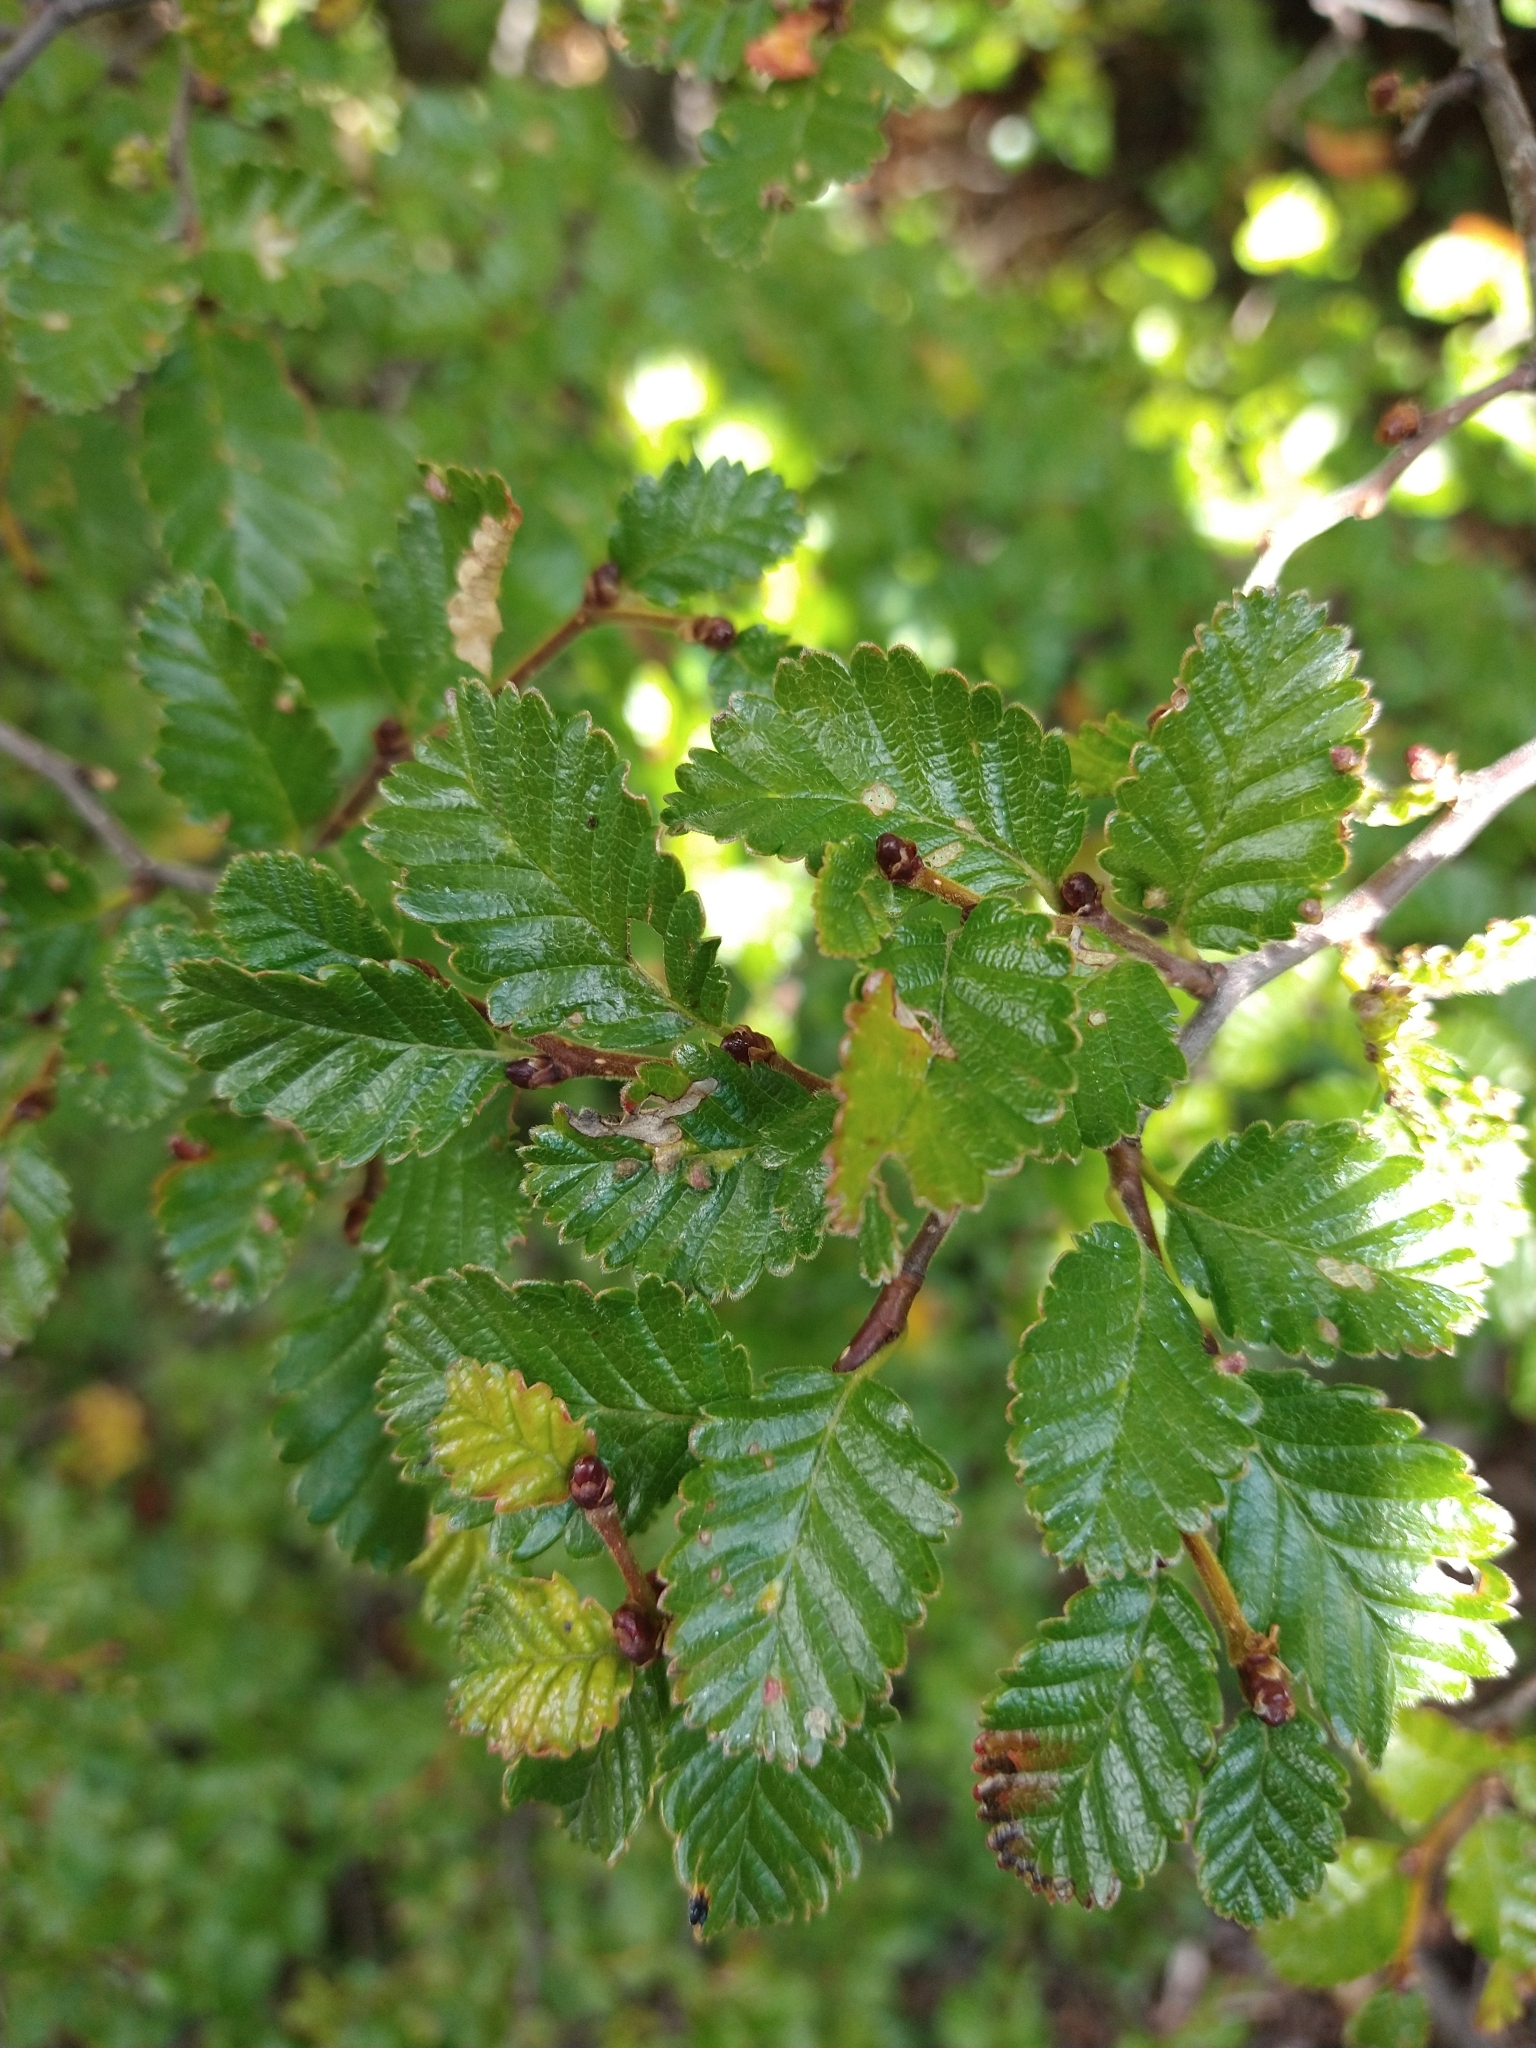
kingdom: Plantae
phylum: Tracheophyta
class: Magnoliopsida
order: Fagales
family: Nothofagaceae
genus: Nothofagus
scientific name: Nothofagus pumilio
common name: Lenga beech
